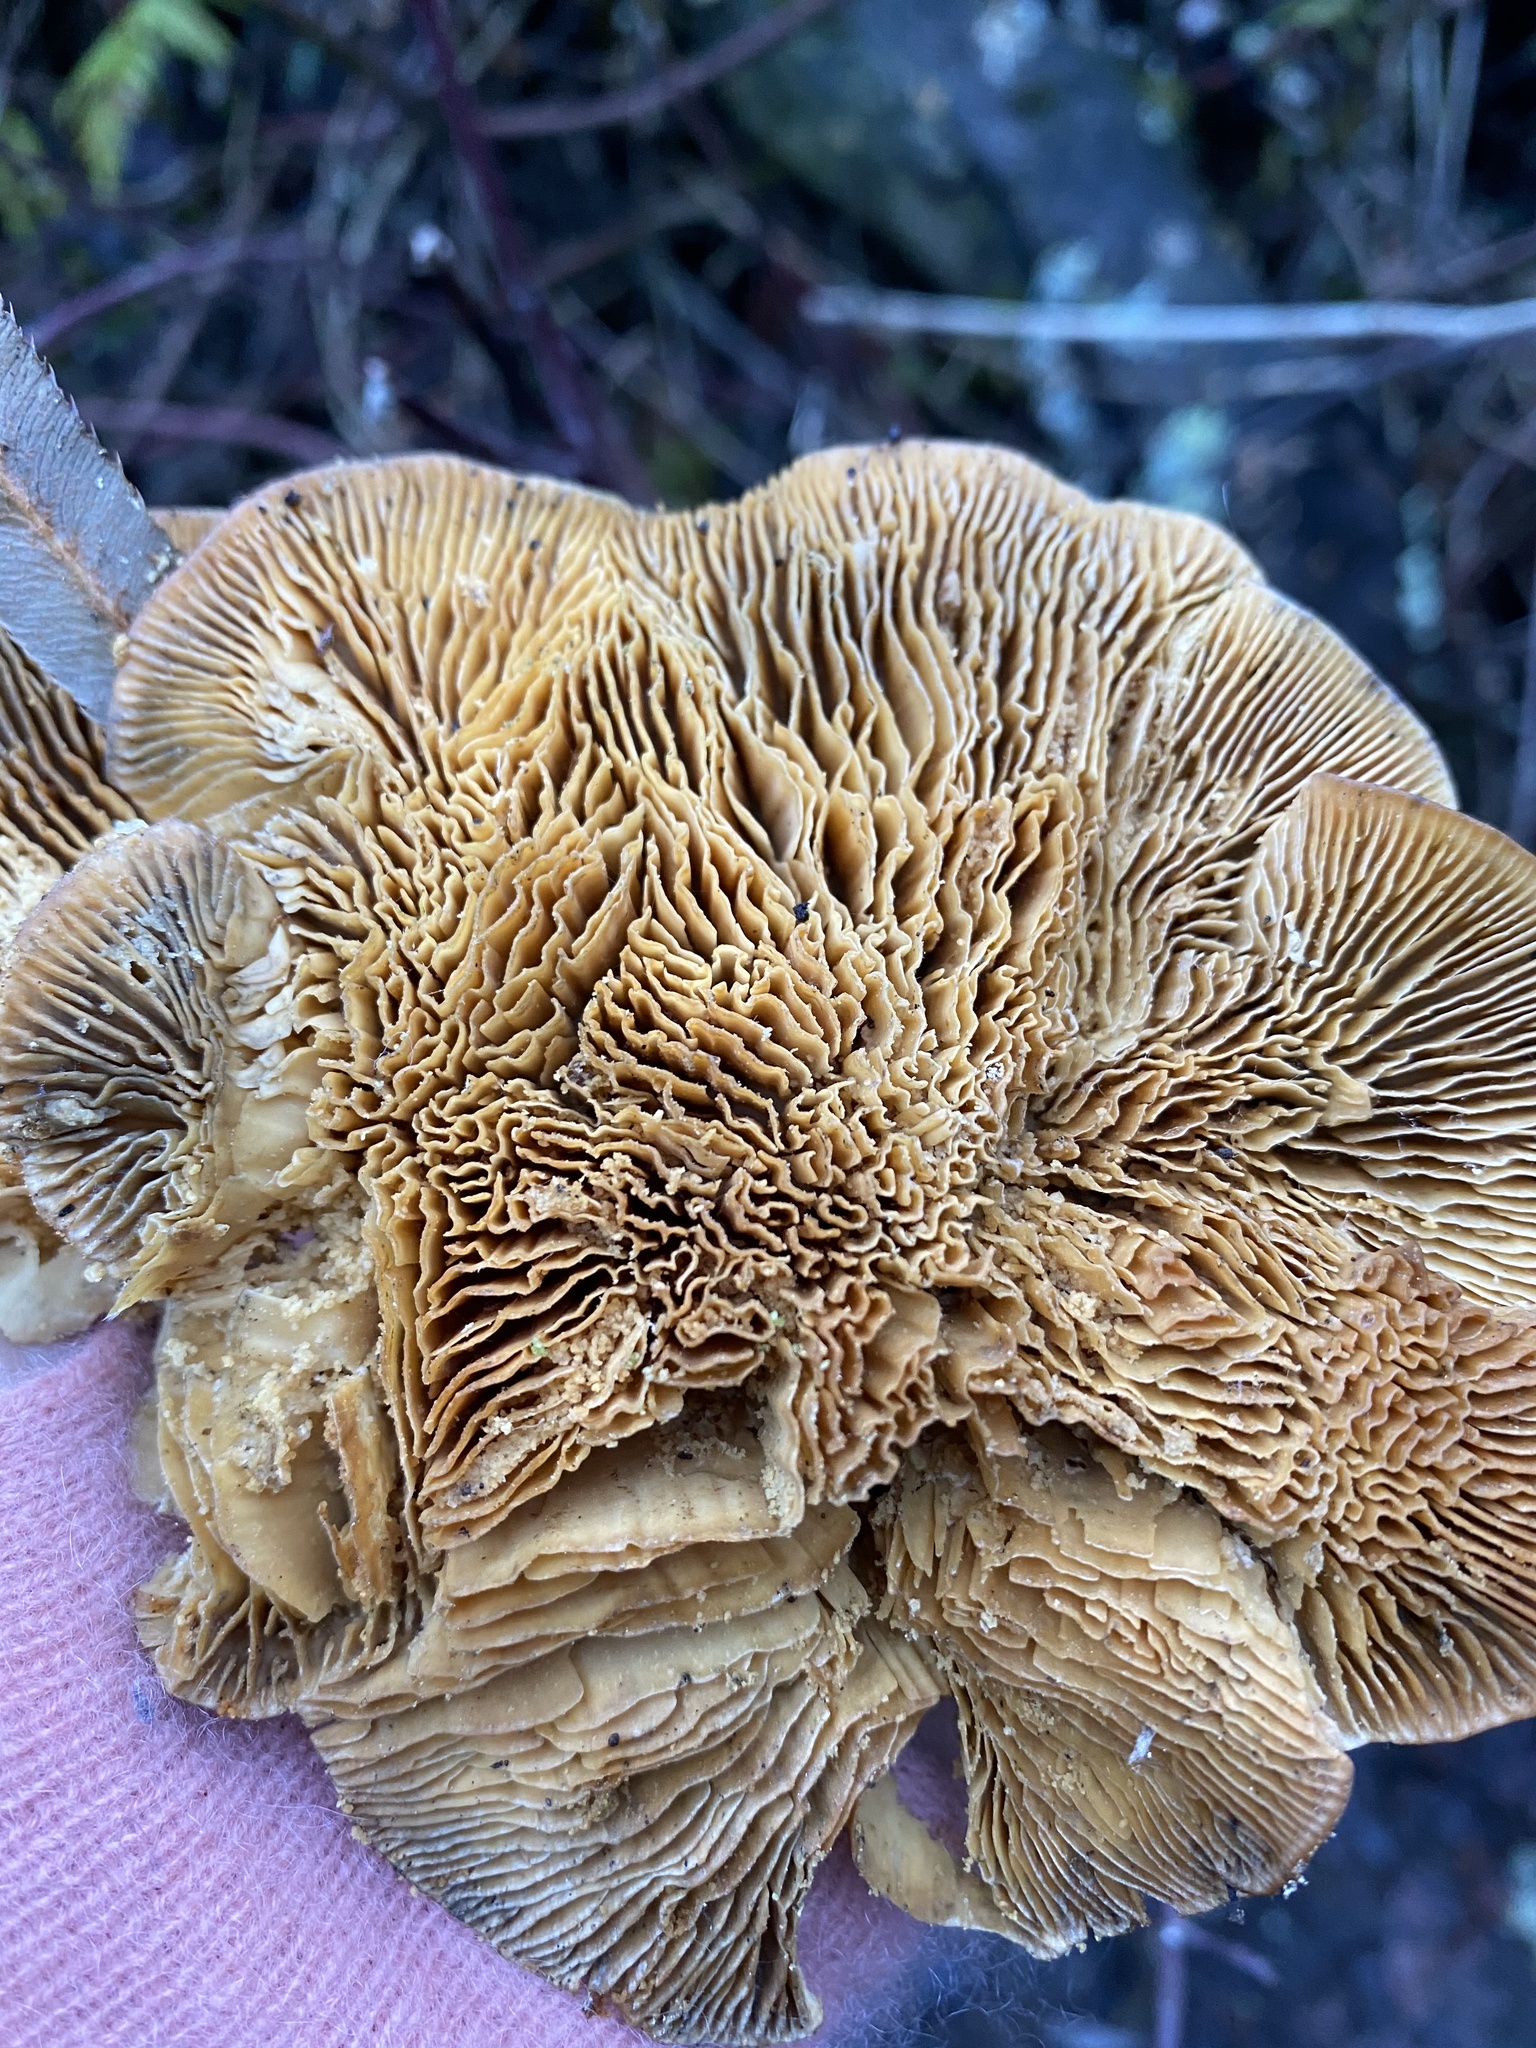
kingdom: Fungi
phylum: Basidiomycota
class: Agaricomycetes
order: Polyporales
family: Polyporaceae
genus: Lenzites
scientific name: Lenzites betulinus
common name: Birch mazegill
